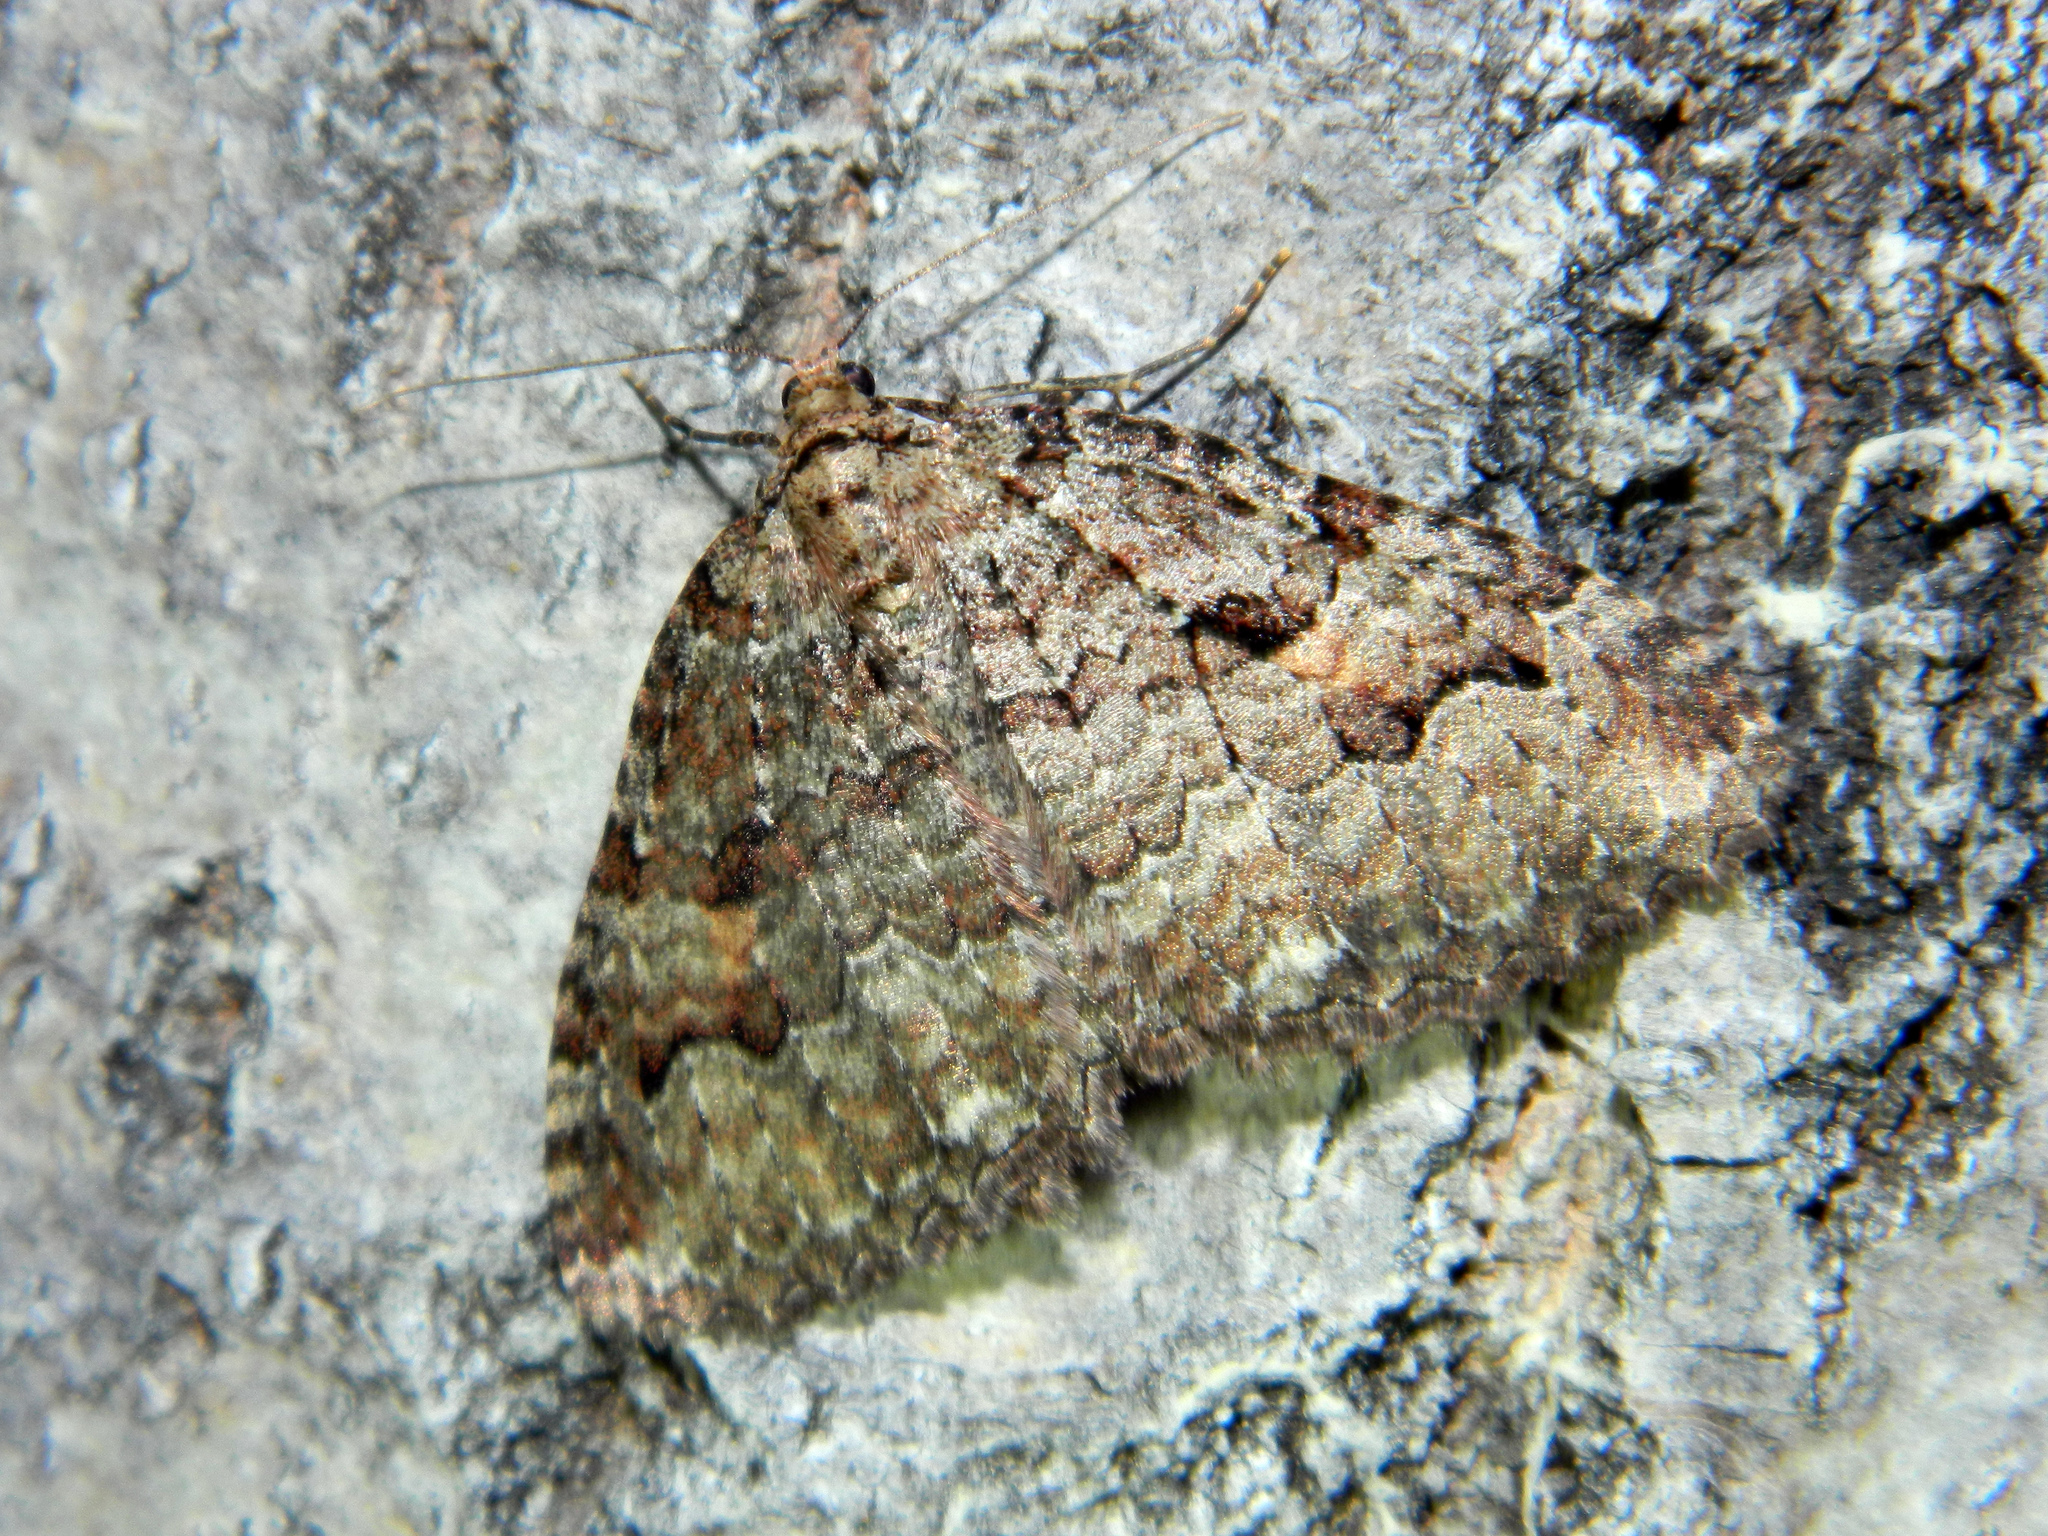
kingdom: Animalia
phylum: Arthropoda
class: Insecta
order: Lepidoptera
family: Geometridae
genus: Triphosa
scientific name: Triphosa haesitata
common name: Tissue moth
